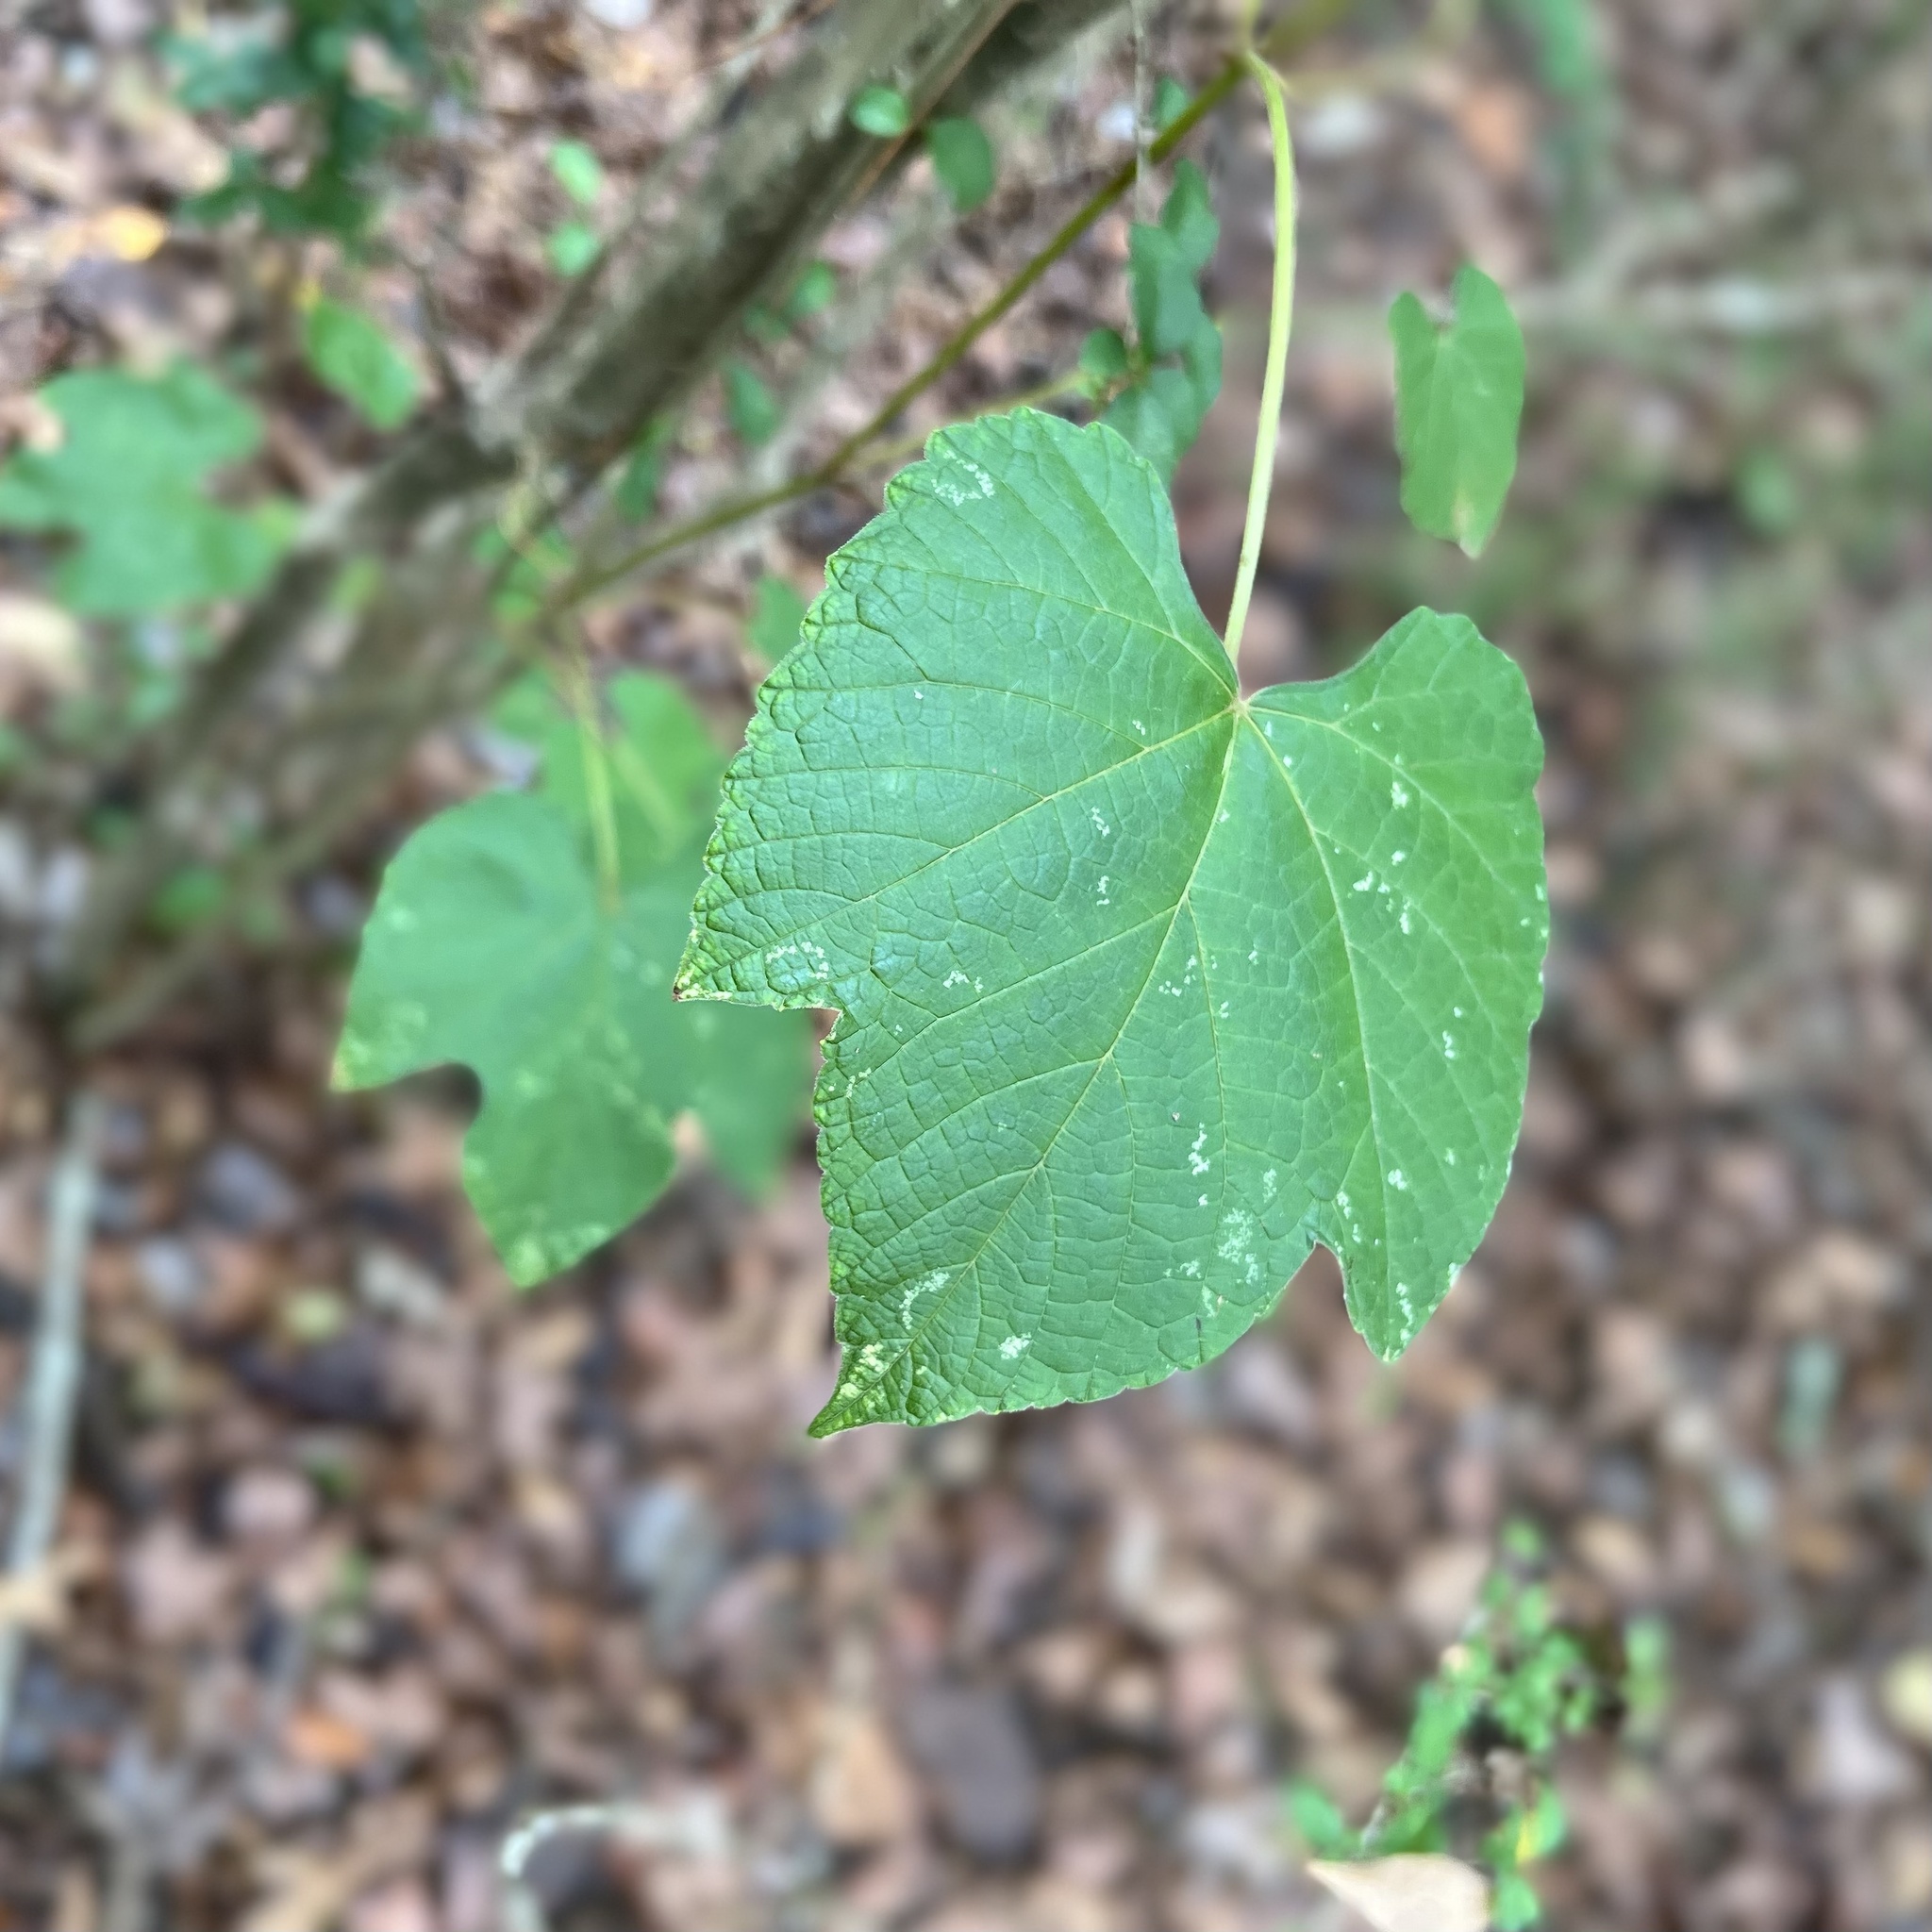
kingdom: Plantae
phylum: Tracheophyta
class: Magnoliopsida
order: Vitales
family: Vitaceae
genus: Vitis
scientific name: Vitis aestivalis
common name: Pigeon grape
